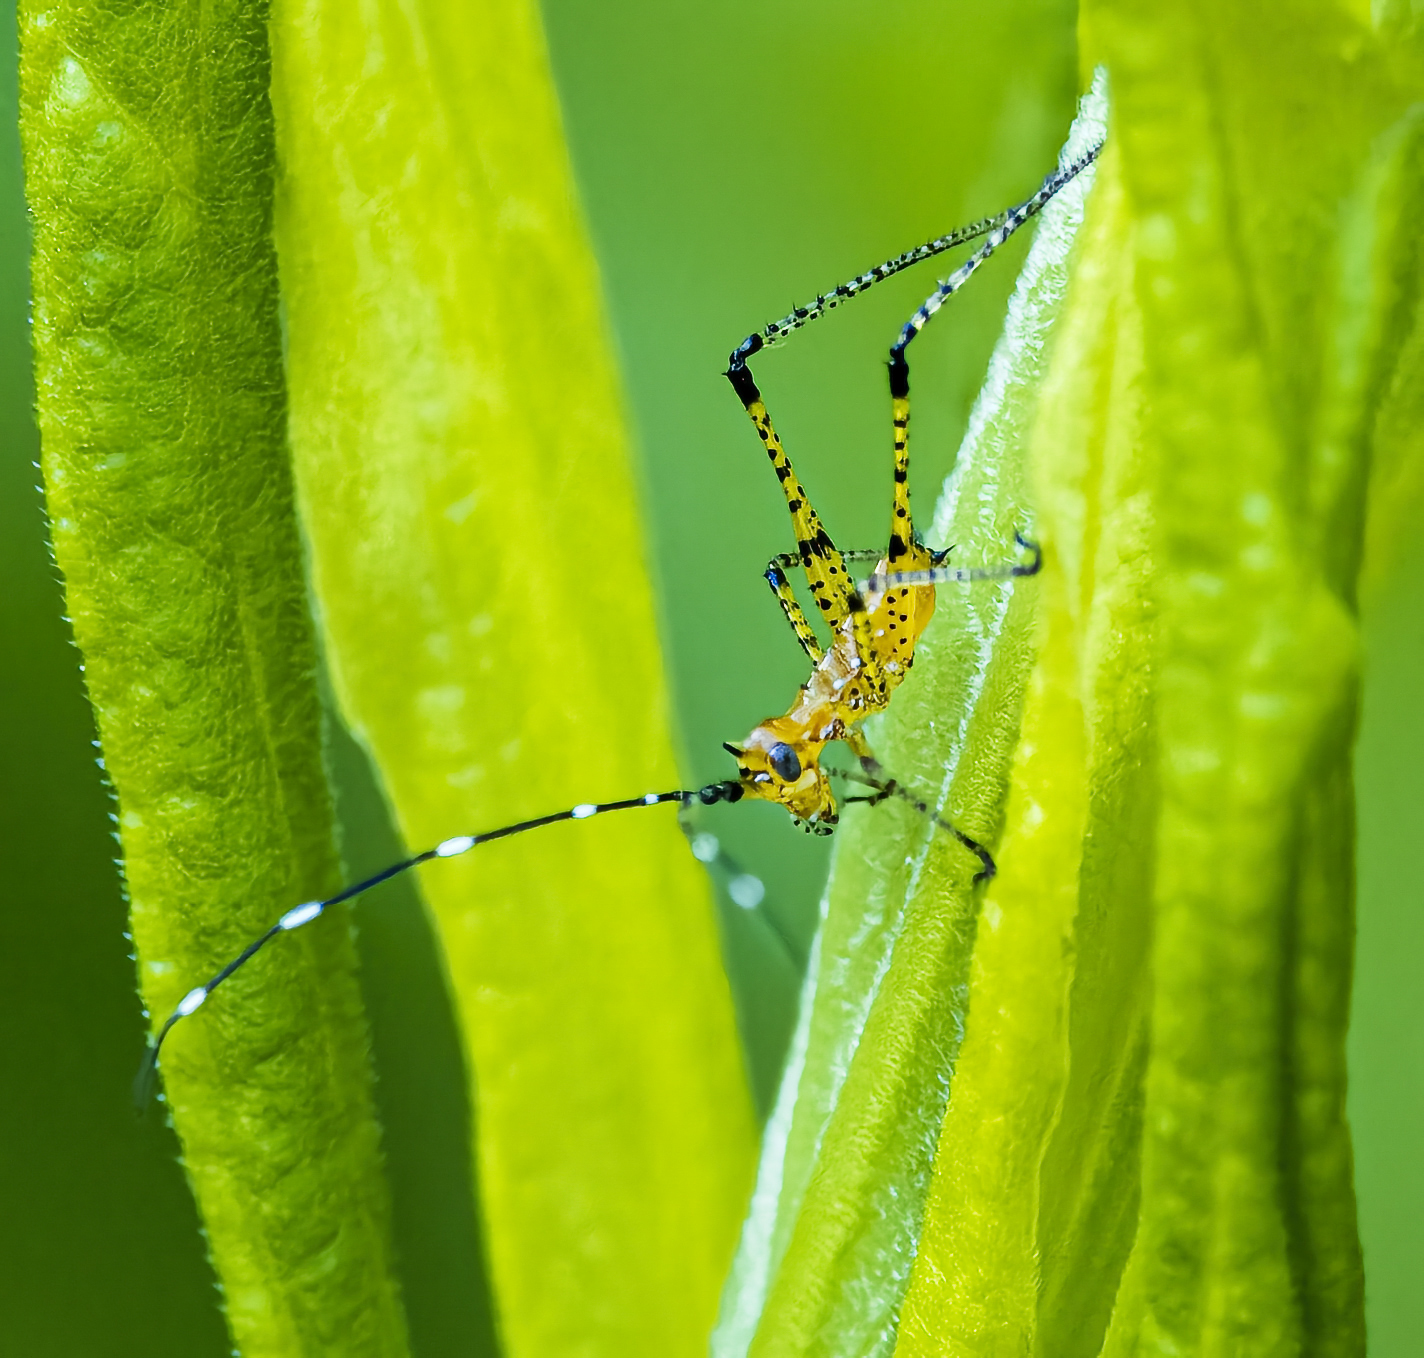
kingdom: Animalia
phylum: Arthropoda
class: Insecta
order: Orthoptera
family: Tettigoniidae
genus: Scudderia
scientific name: Scudderia
